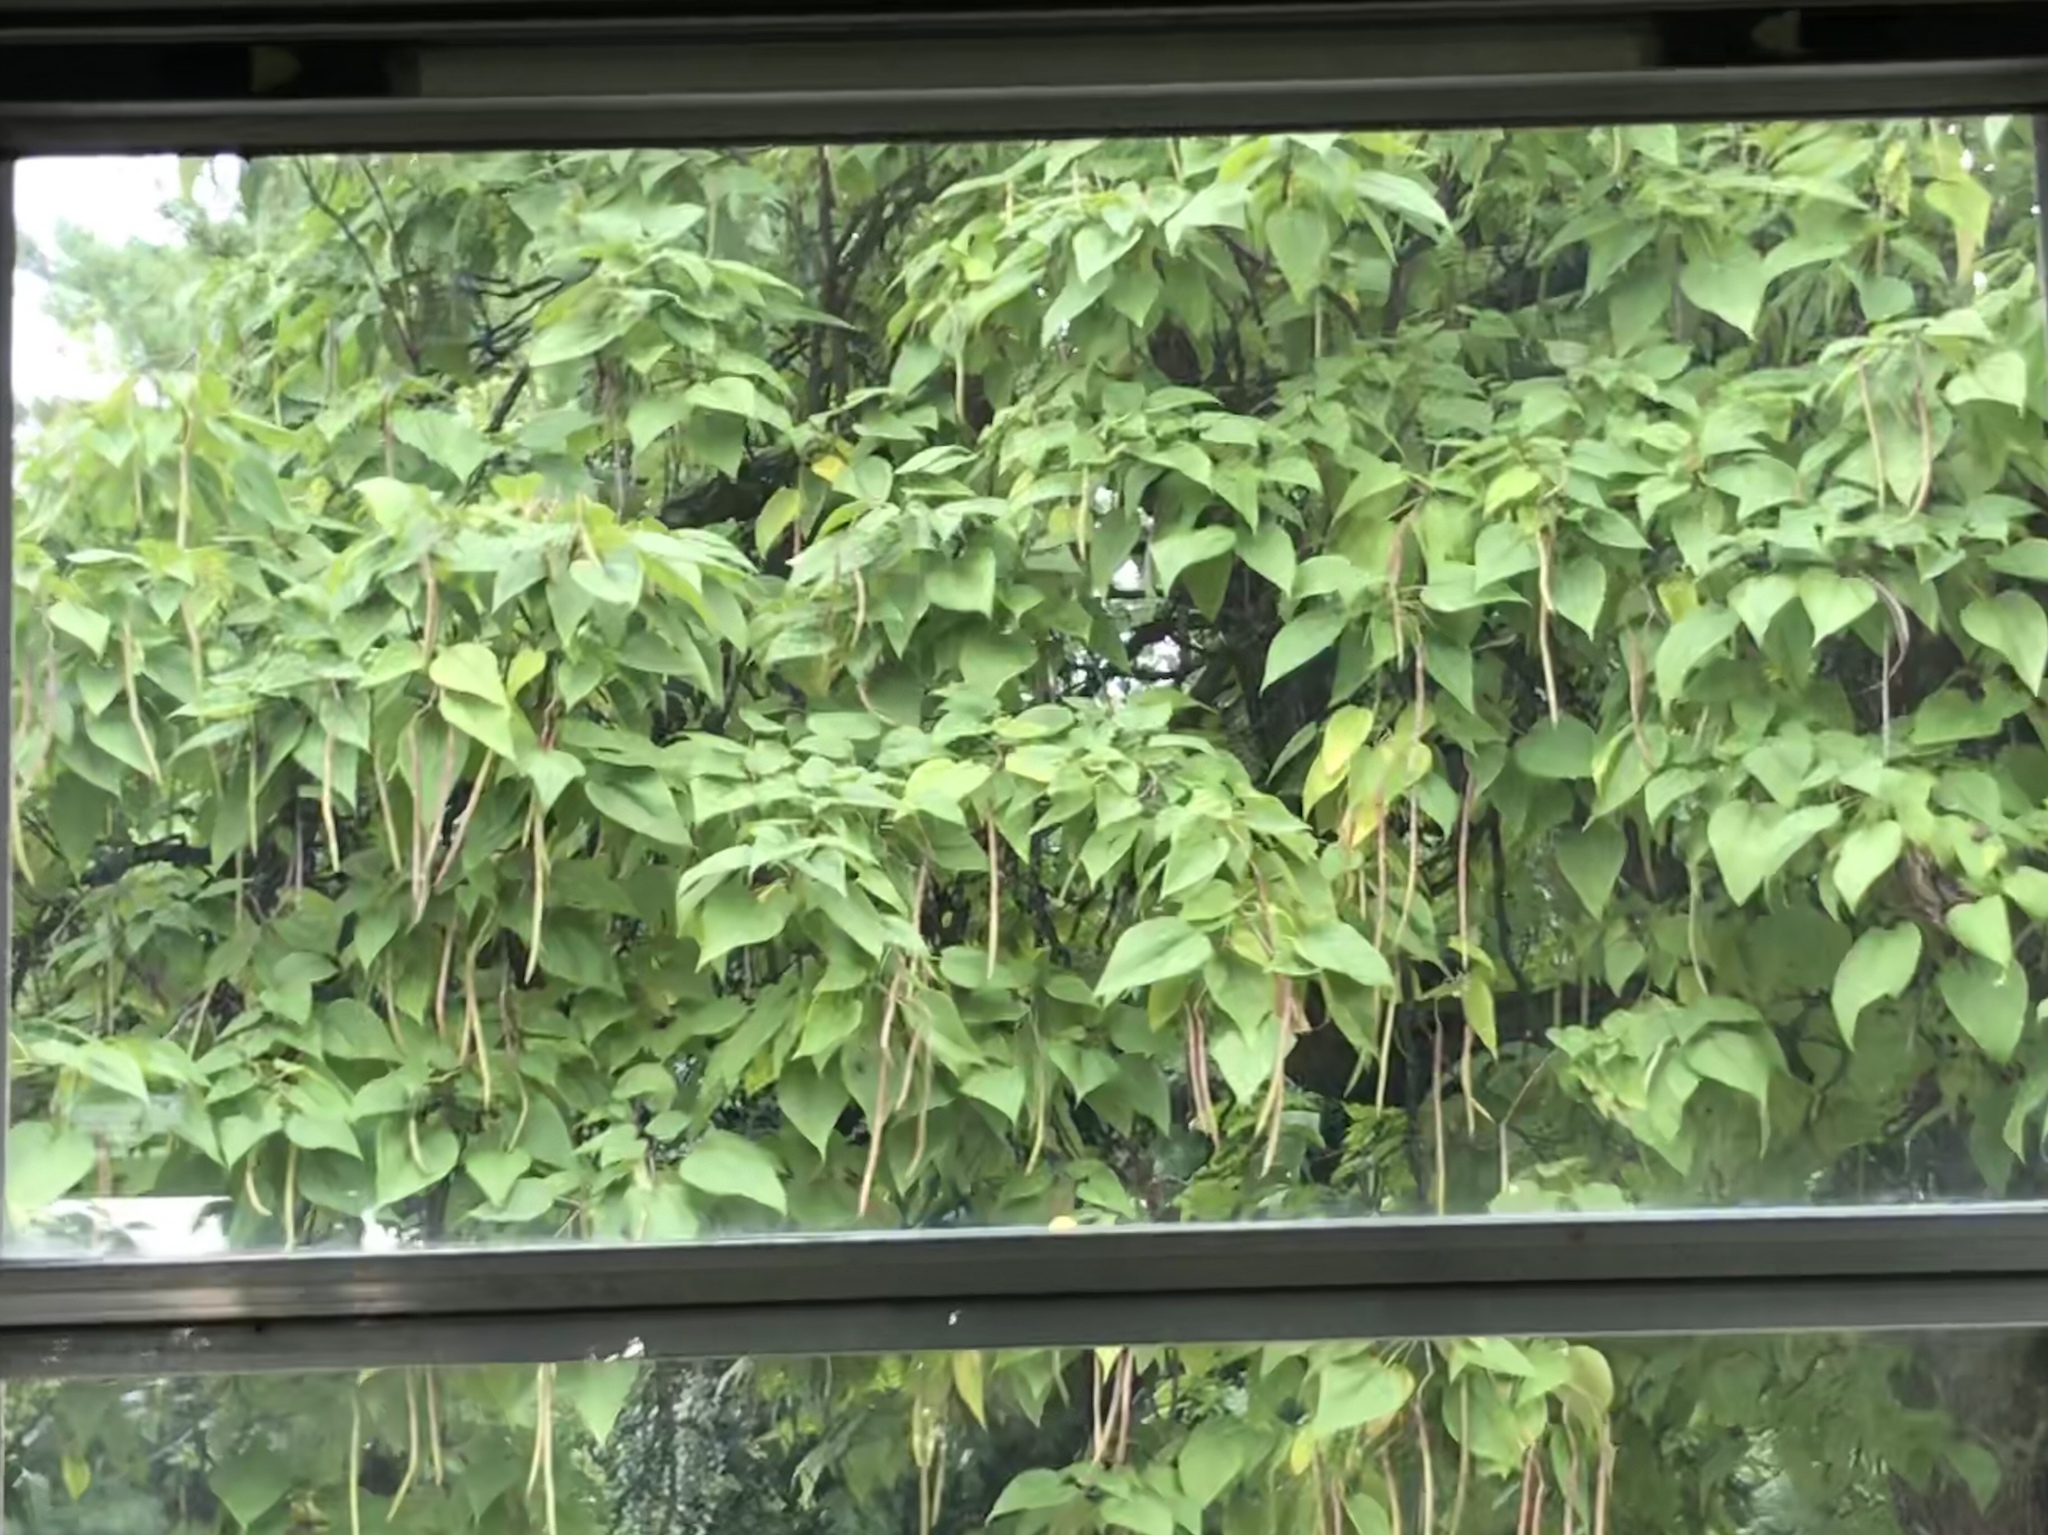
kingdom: Plantae
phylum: Tracheophyta
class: Magnoliopsida
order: Lamiales
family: Bignoniaceae
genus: Catalpa
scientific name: Catalpa speciosa
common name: Northern catalpa
